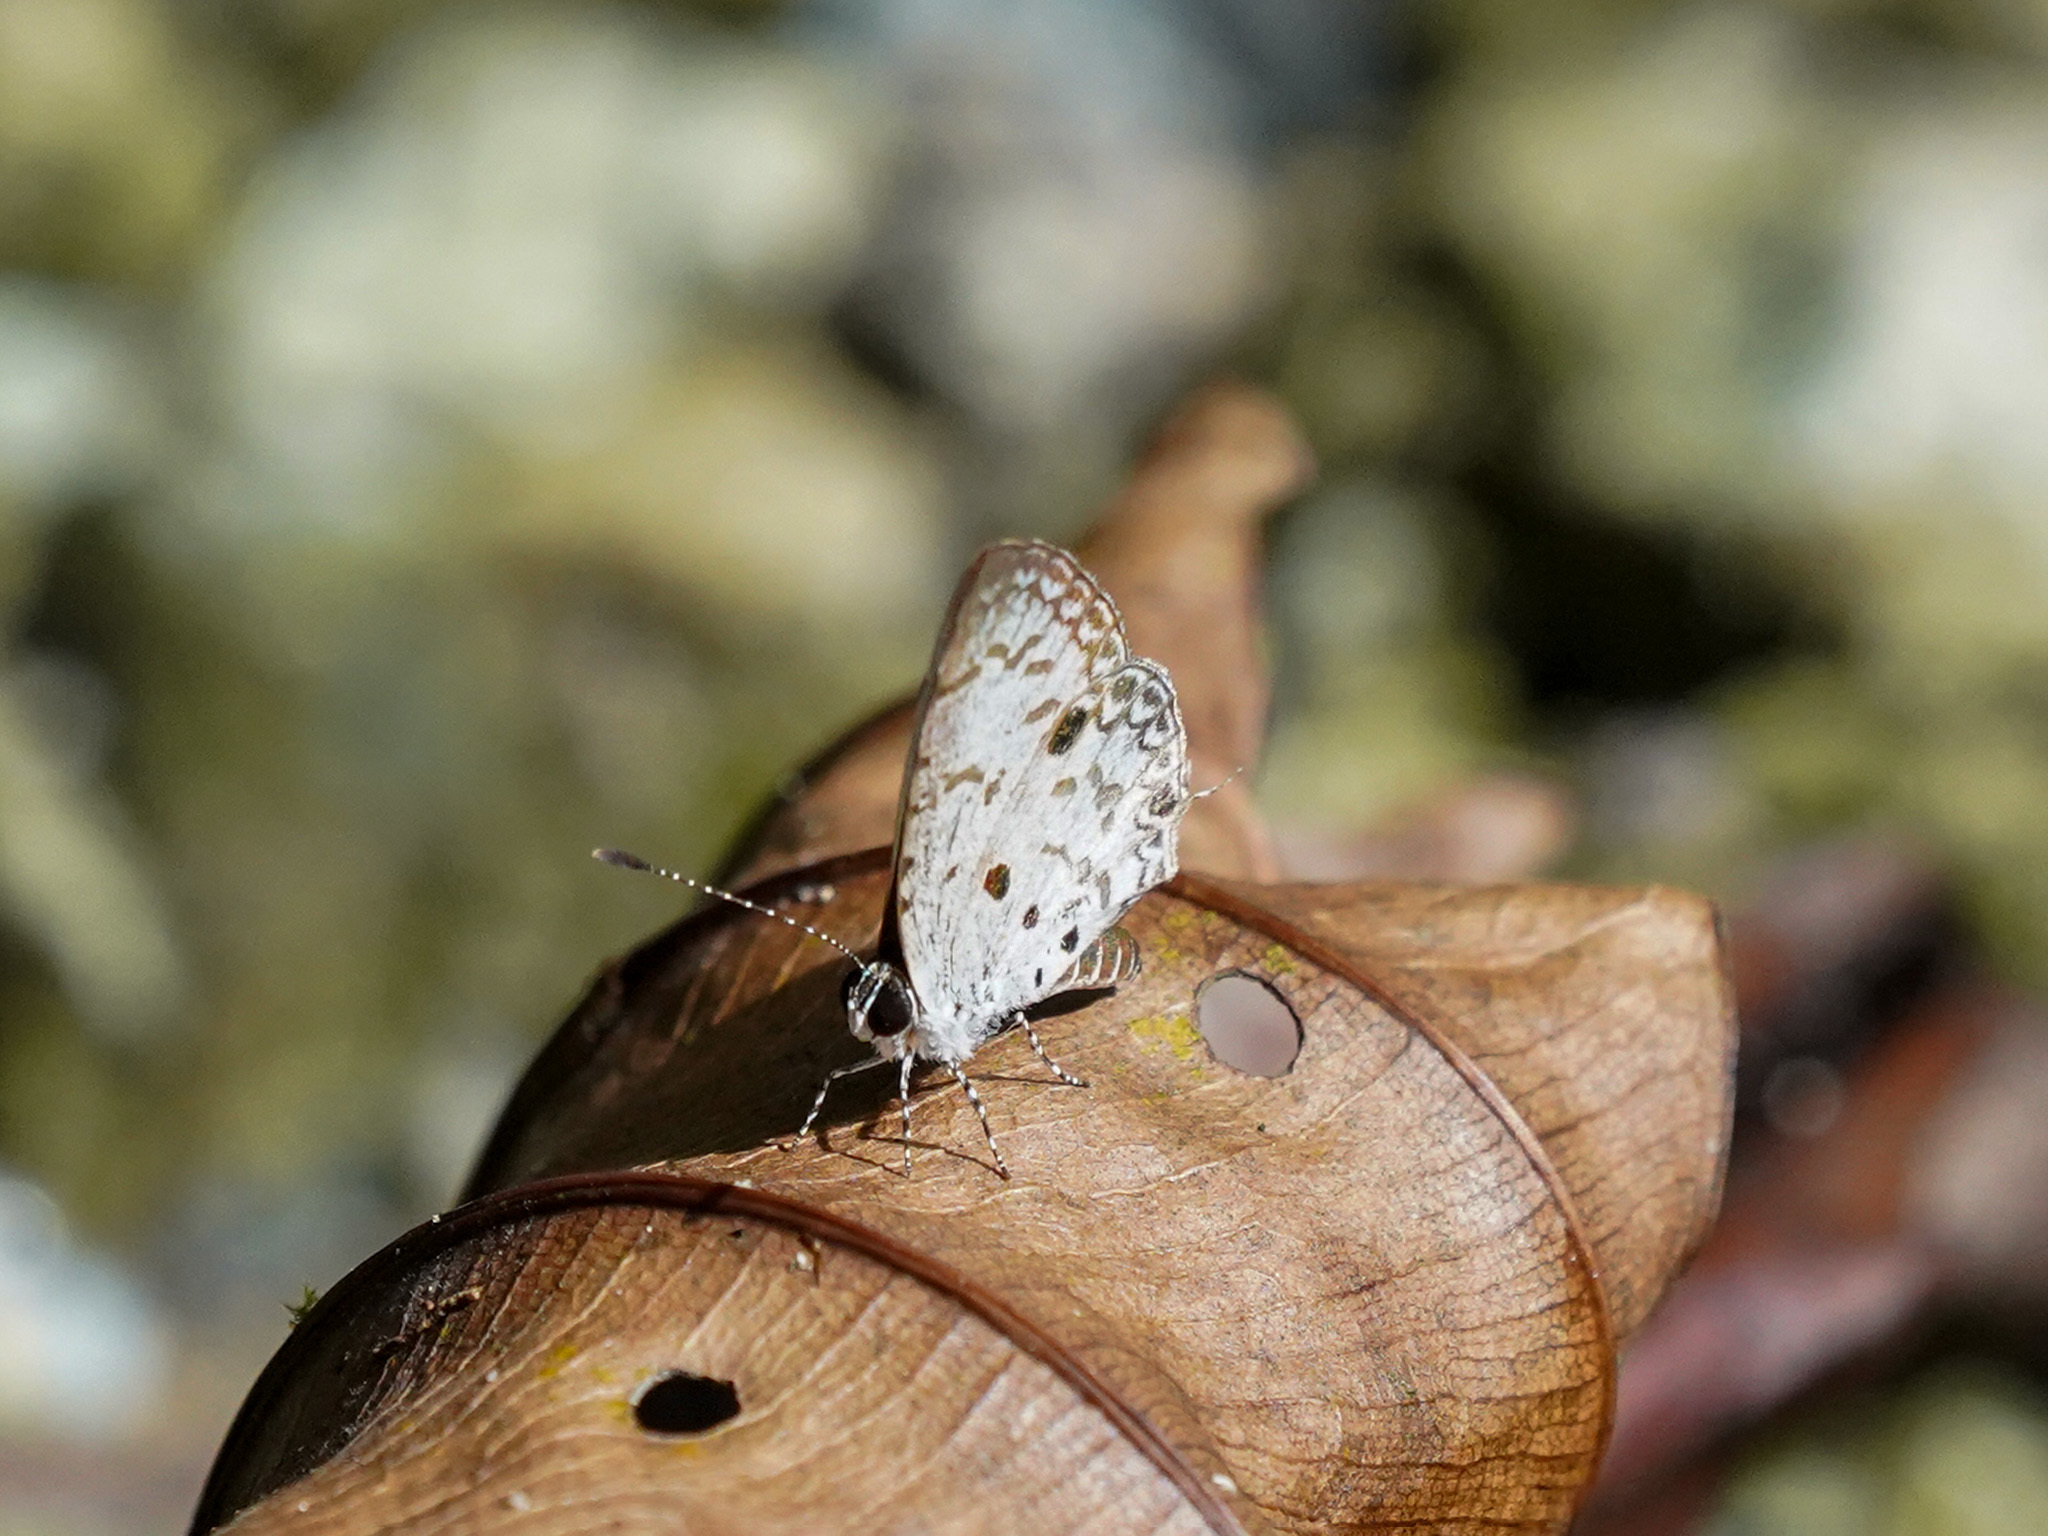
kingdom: Animalia
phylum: Arthropoda
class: Insecta
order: Lepidoptera
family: Lycaenidae
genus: Megisba
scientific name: Megisba malaya
